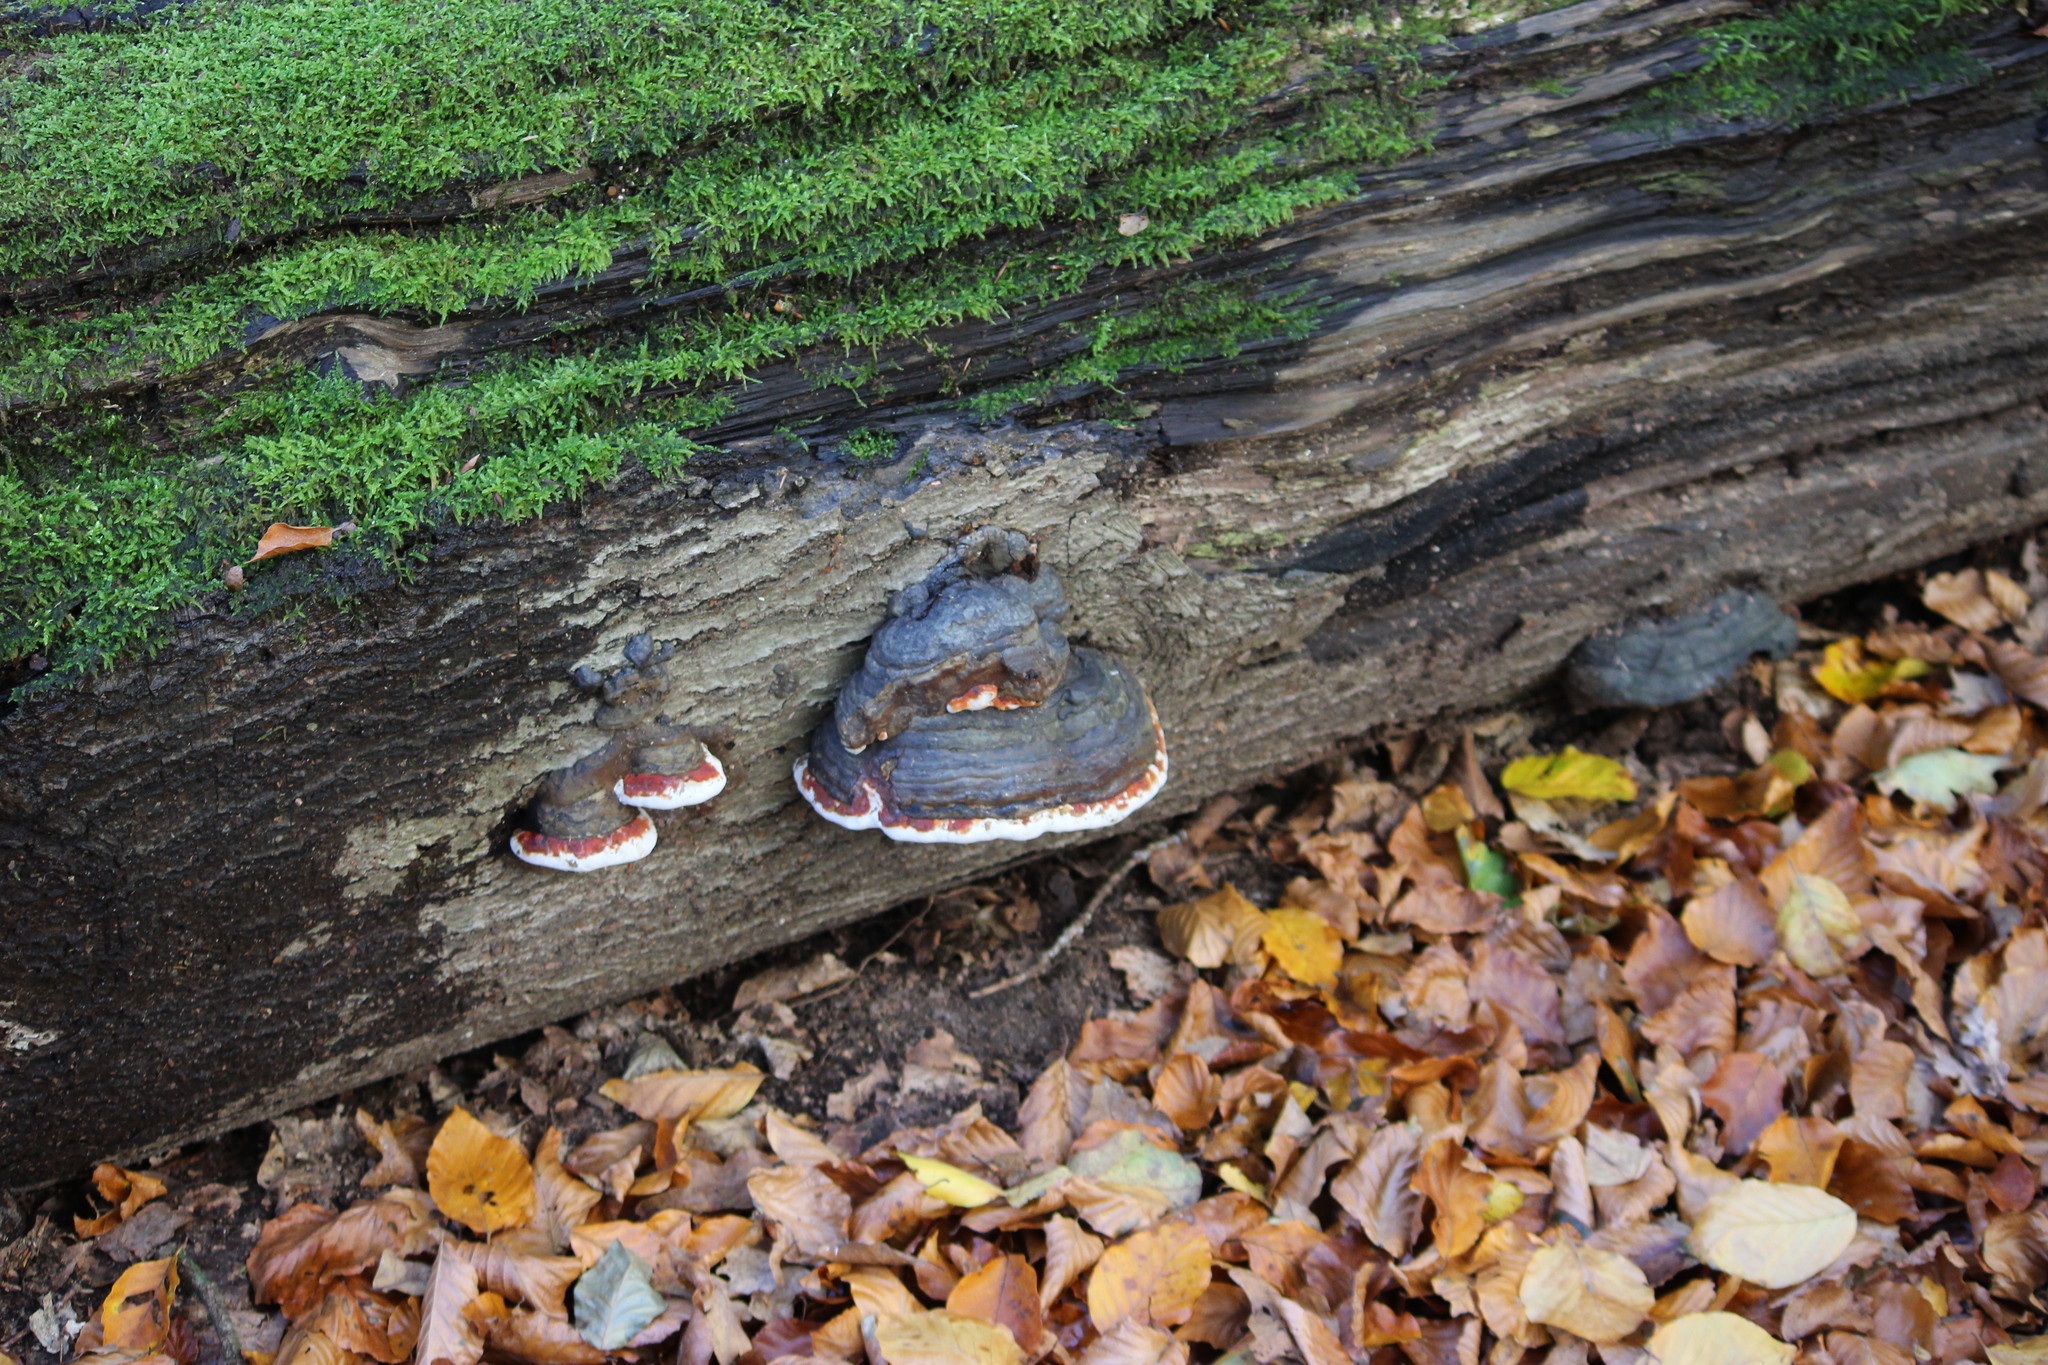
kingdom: Fungi
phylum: Basidiomycota
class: Agaricomycetes
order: Polyporales
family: Fomitopsidaceae
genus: Fomitopsis
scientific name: Fomitopsis pinicola
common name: Red-belted bracket
